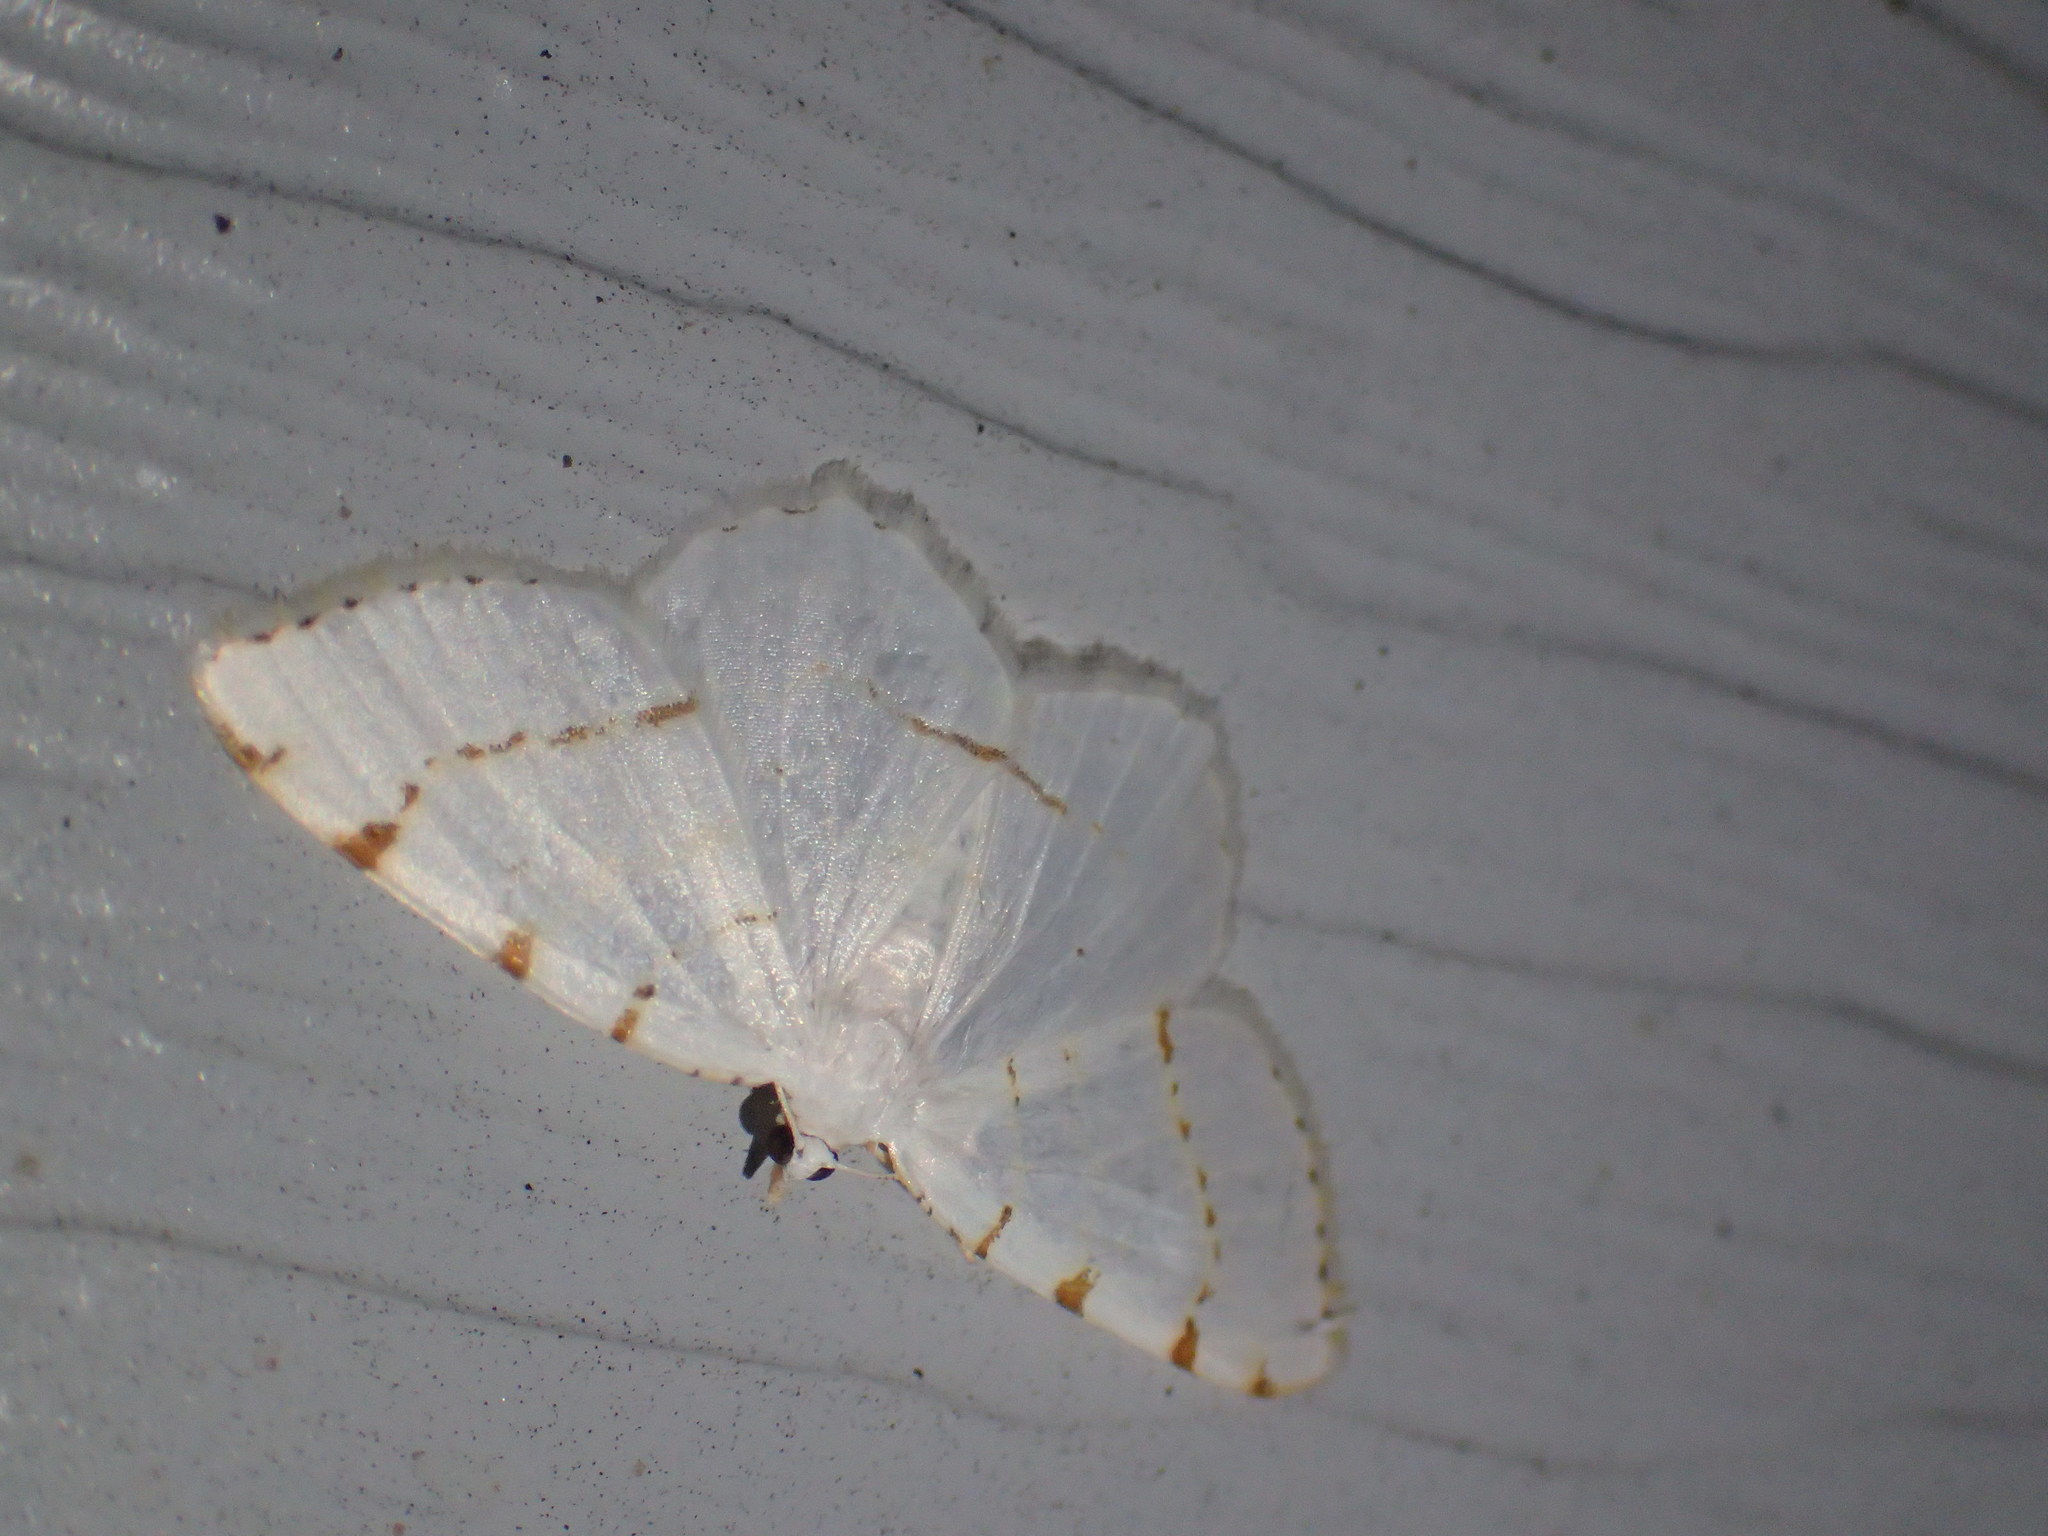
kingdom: Animalia
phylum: Arthropoda
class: Insecta
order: Lepidoptera
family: Geometridae
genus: Macaria
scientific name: Macaria pustularia
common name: Lesser maple spanworm moth
